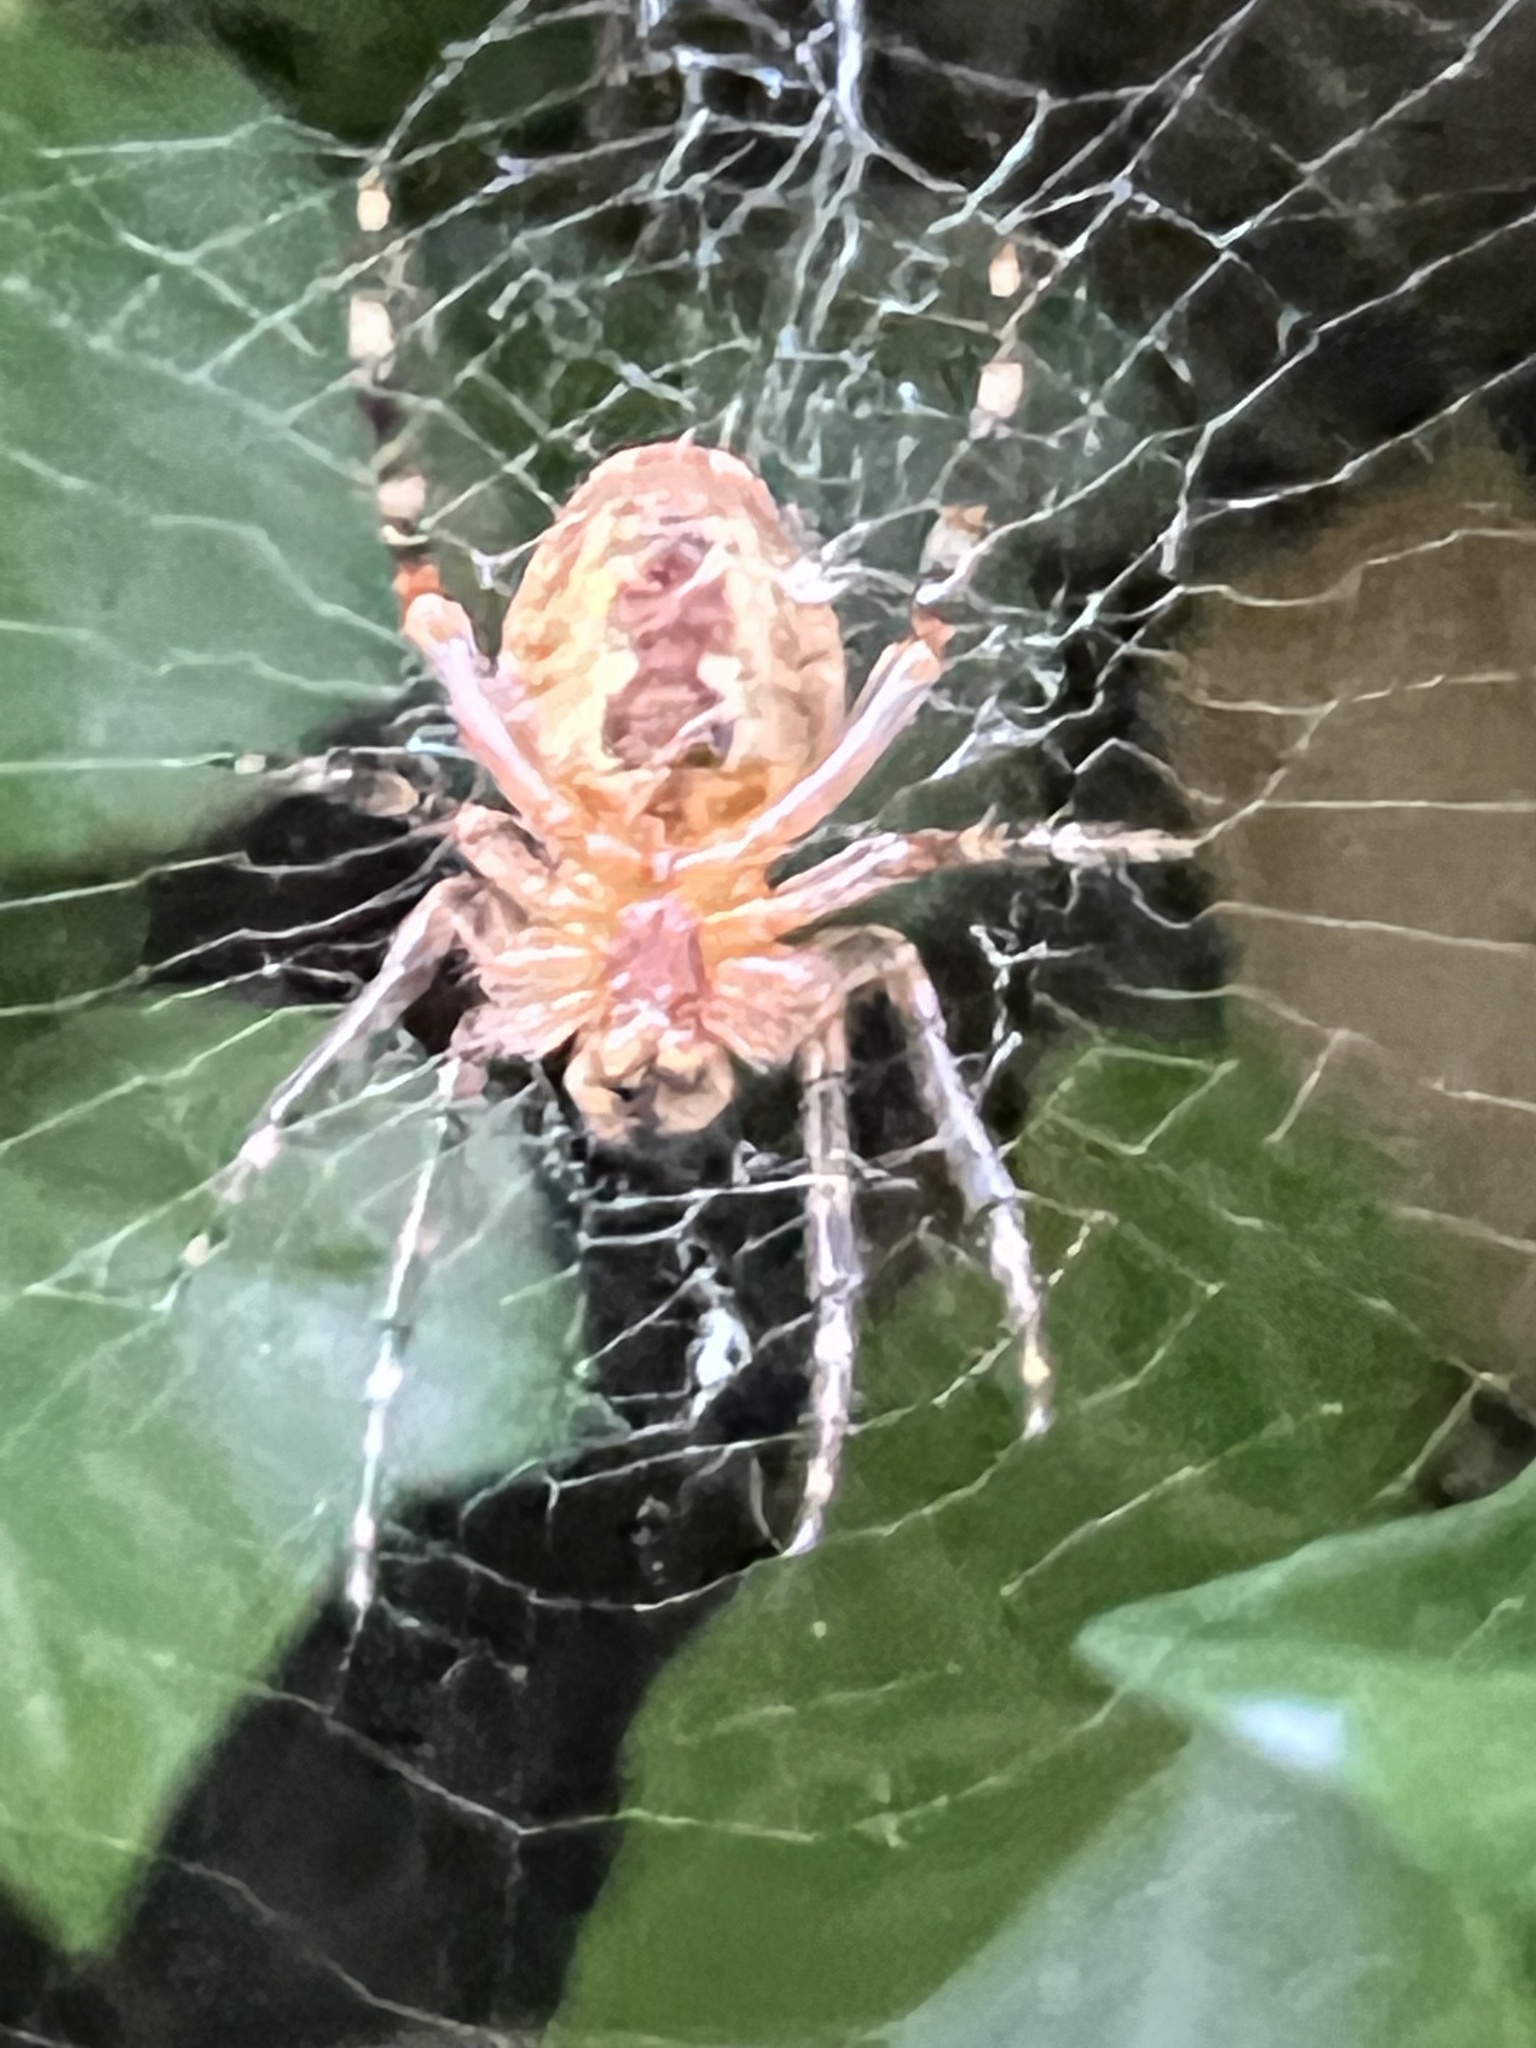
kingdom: Animalia
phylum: Arthropoda
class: Arachnida
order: Araneae
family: Araneidae
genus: Araneus
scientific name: Araneus diadematus
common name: Cross orbweaver
